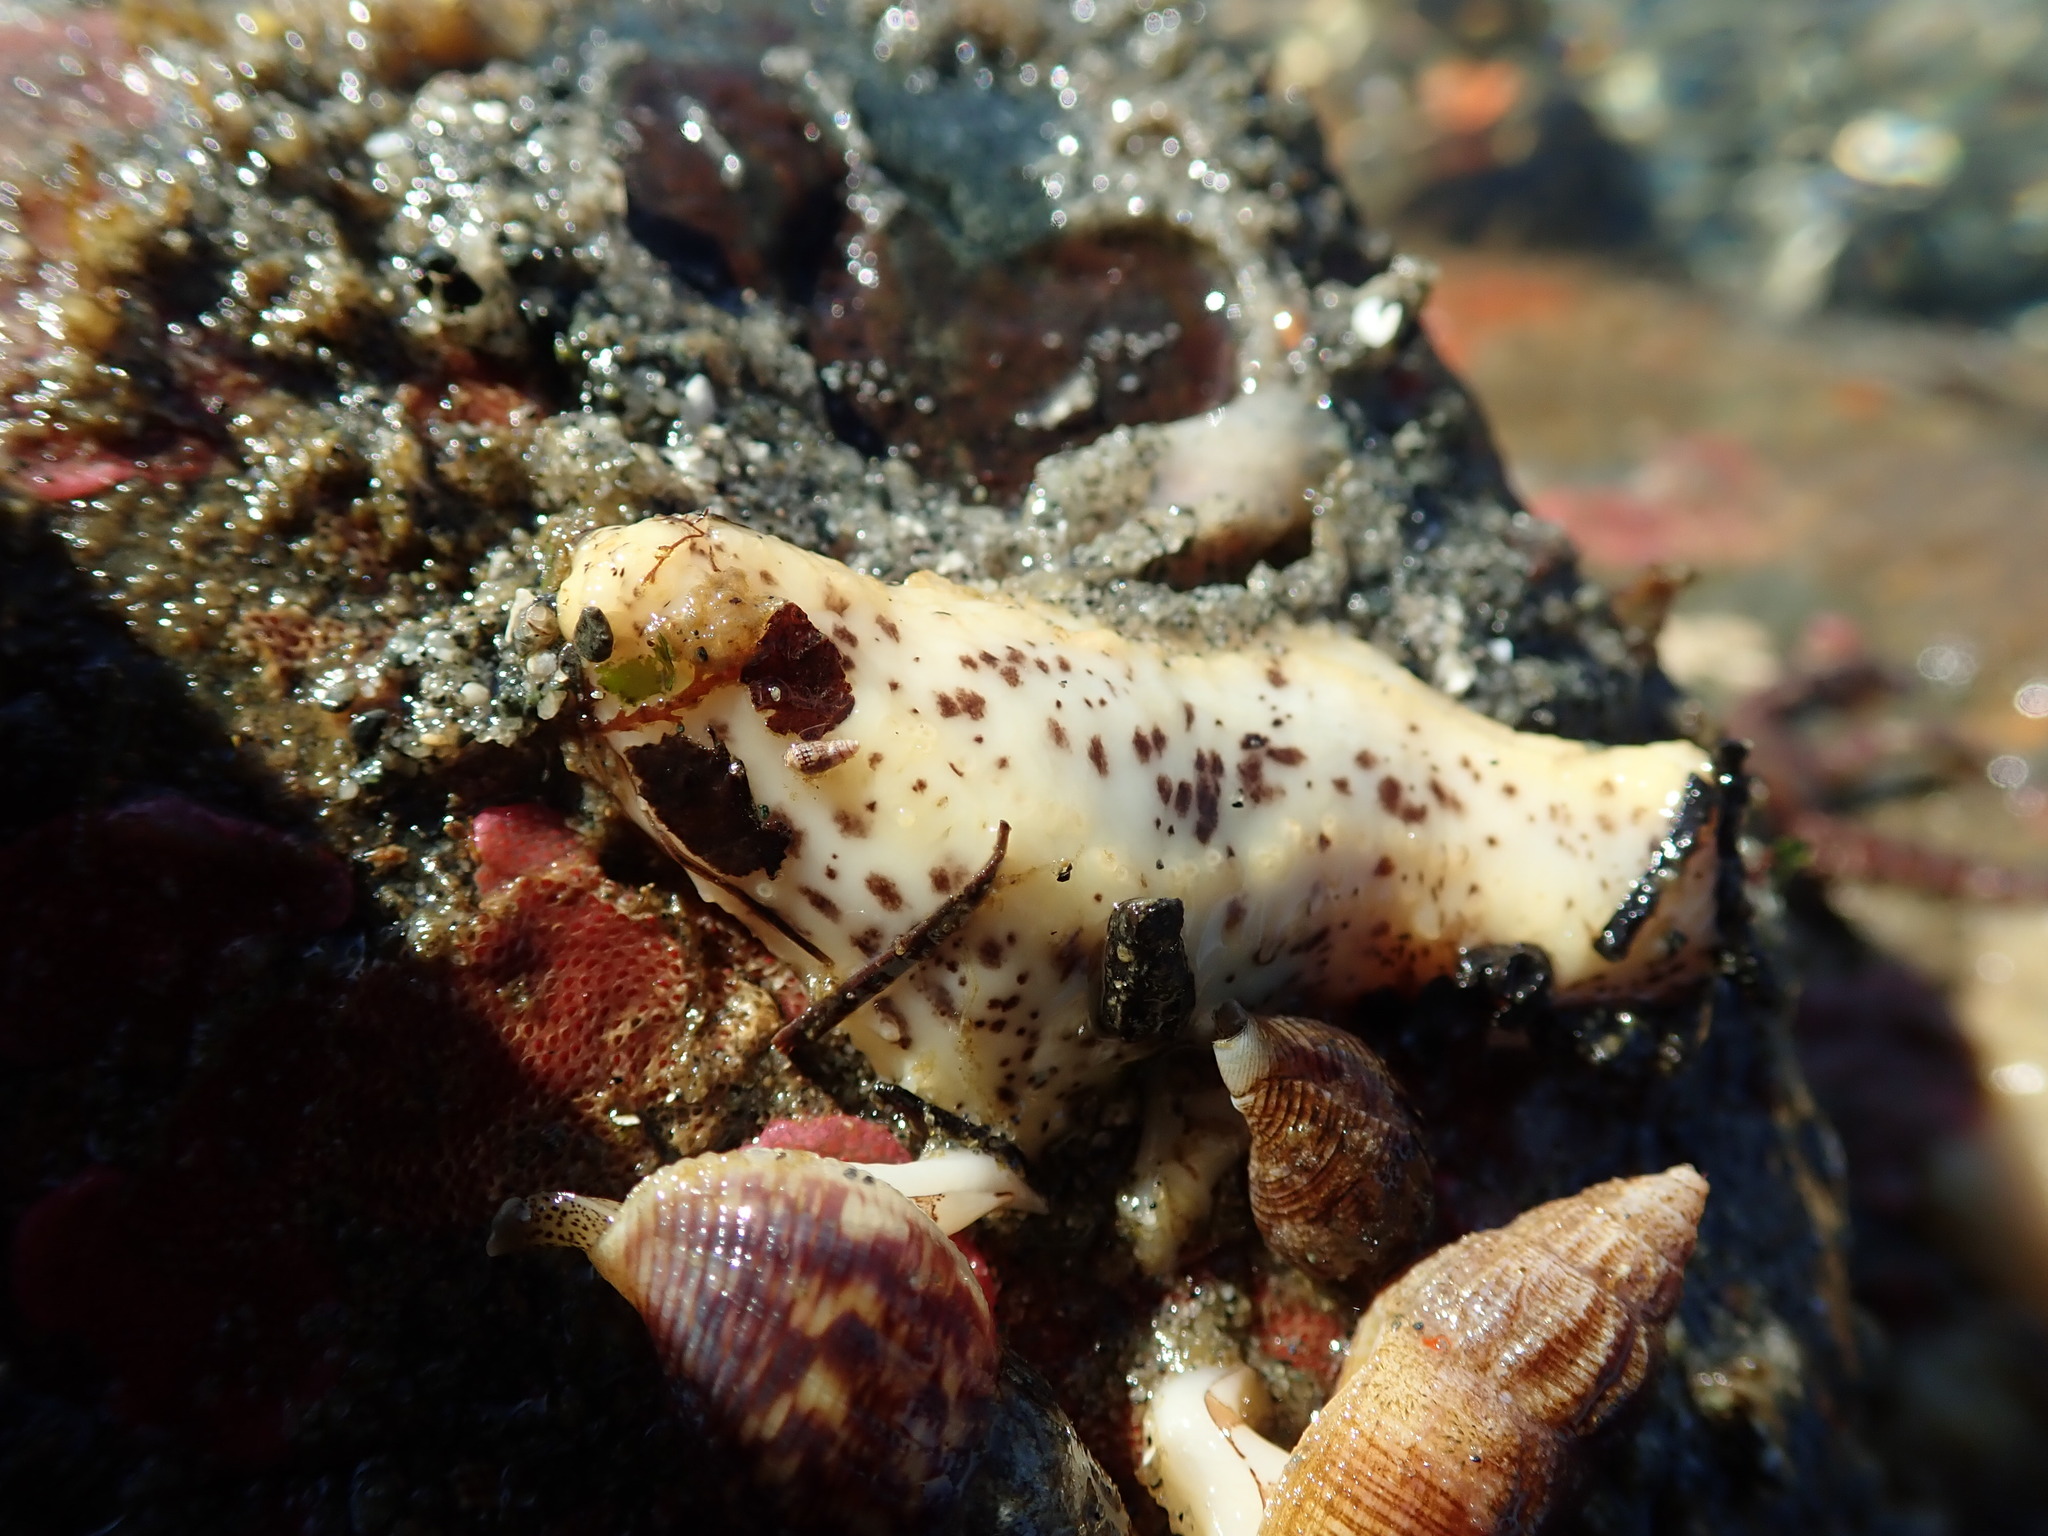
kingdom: Animalia
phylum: Echinodermata
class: Holothuroidea
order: Dendrochirotida
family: Cucumariidae
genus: Cucumaria
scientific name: Cucumaria piperata
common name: Peppered sea cucumber
